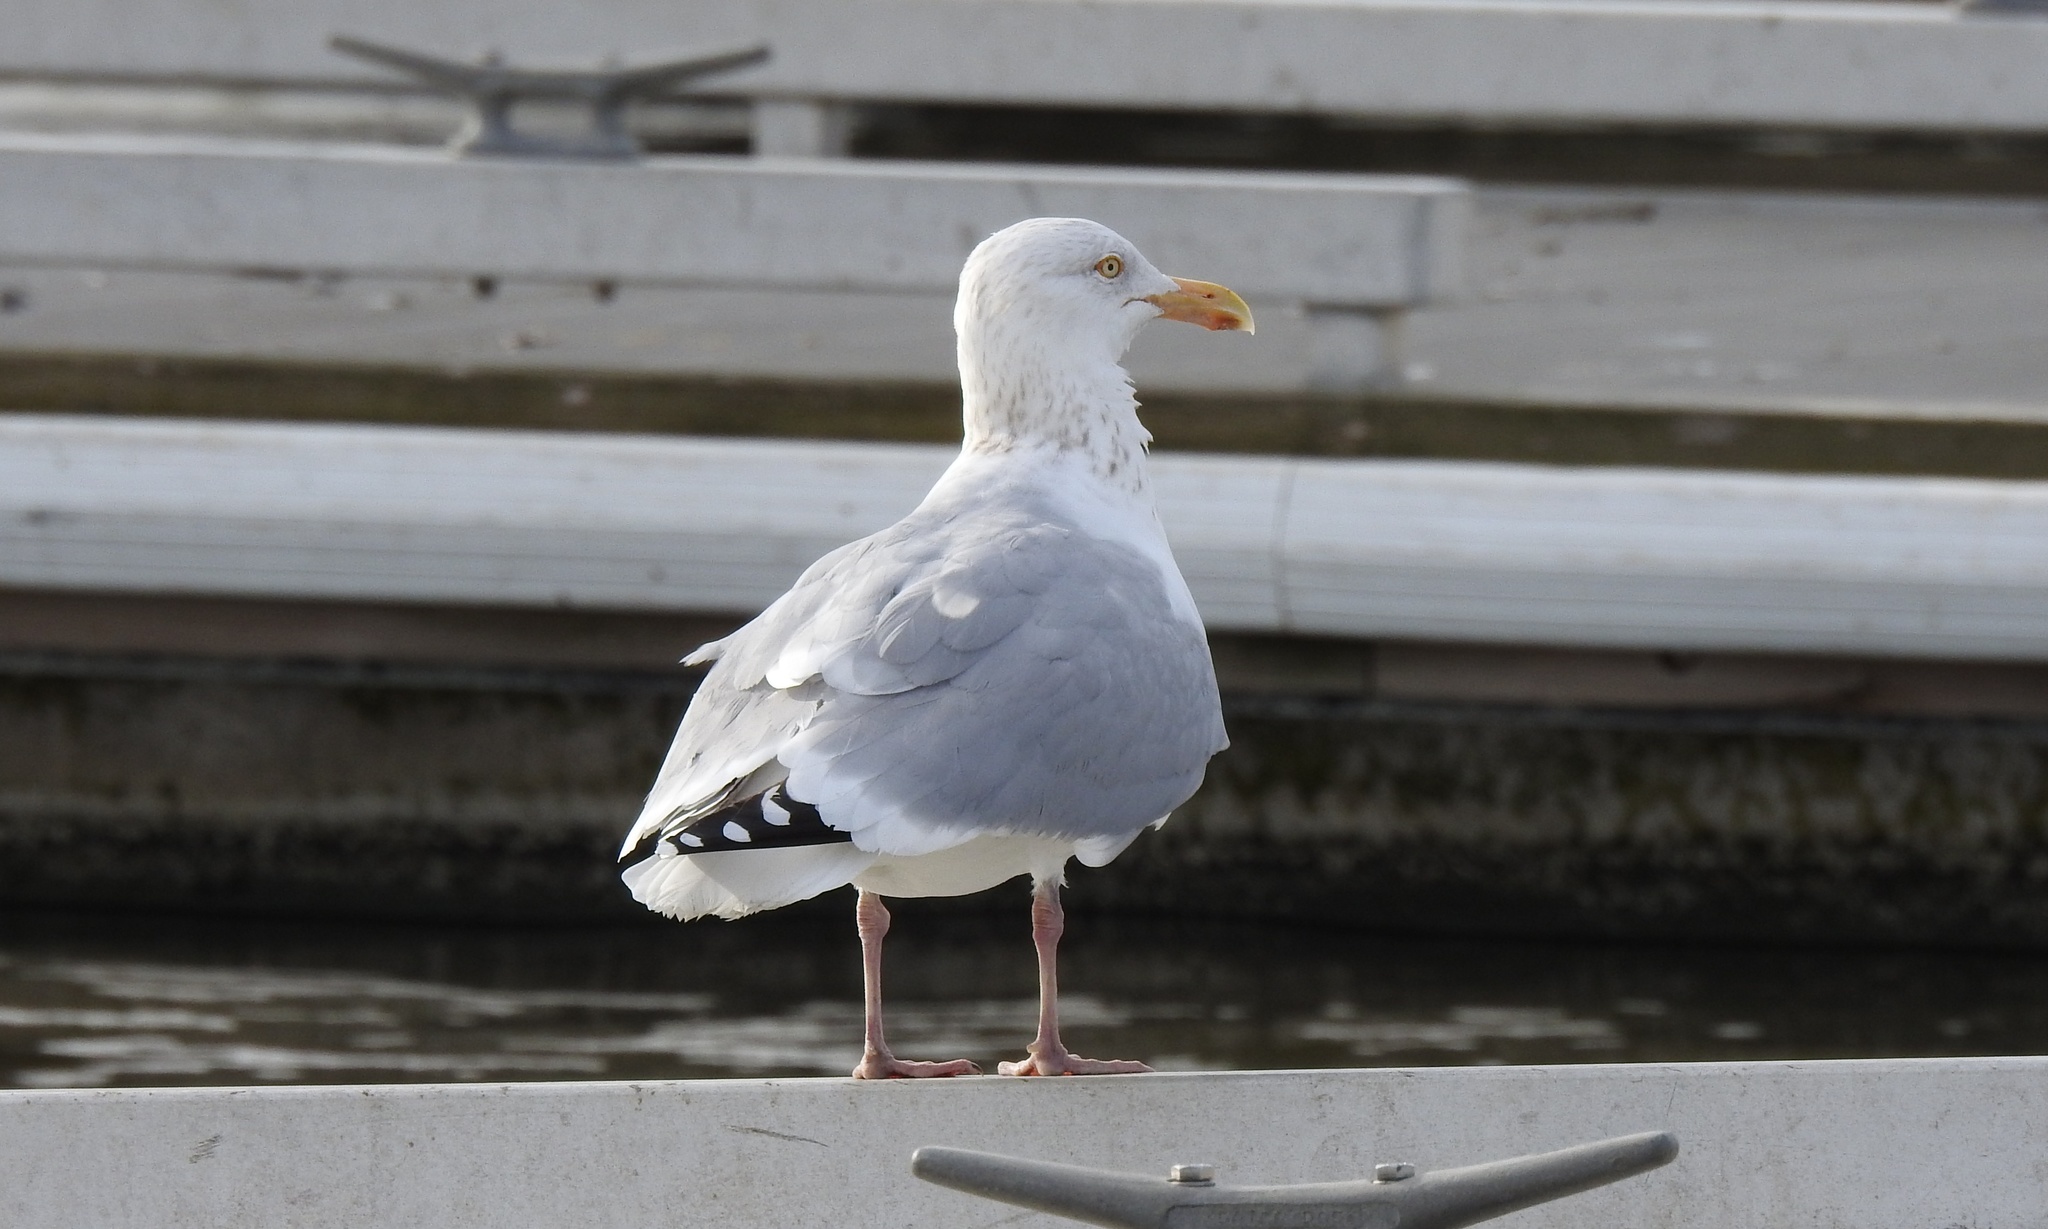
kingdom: Animalia
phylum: Chordata
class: Aves
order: Charadriiformes
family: Laridae
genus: Larus
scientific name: Larus smithsonianus
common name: American herring gull
